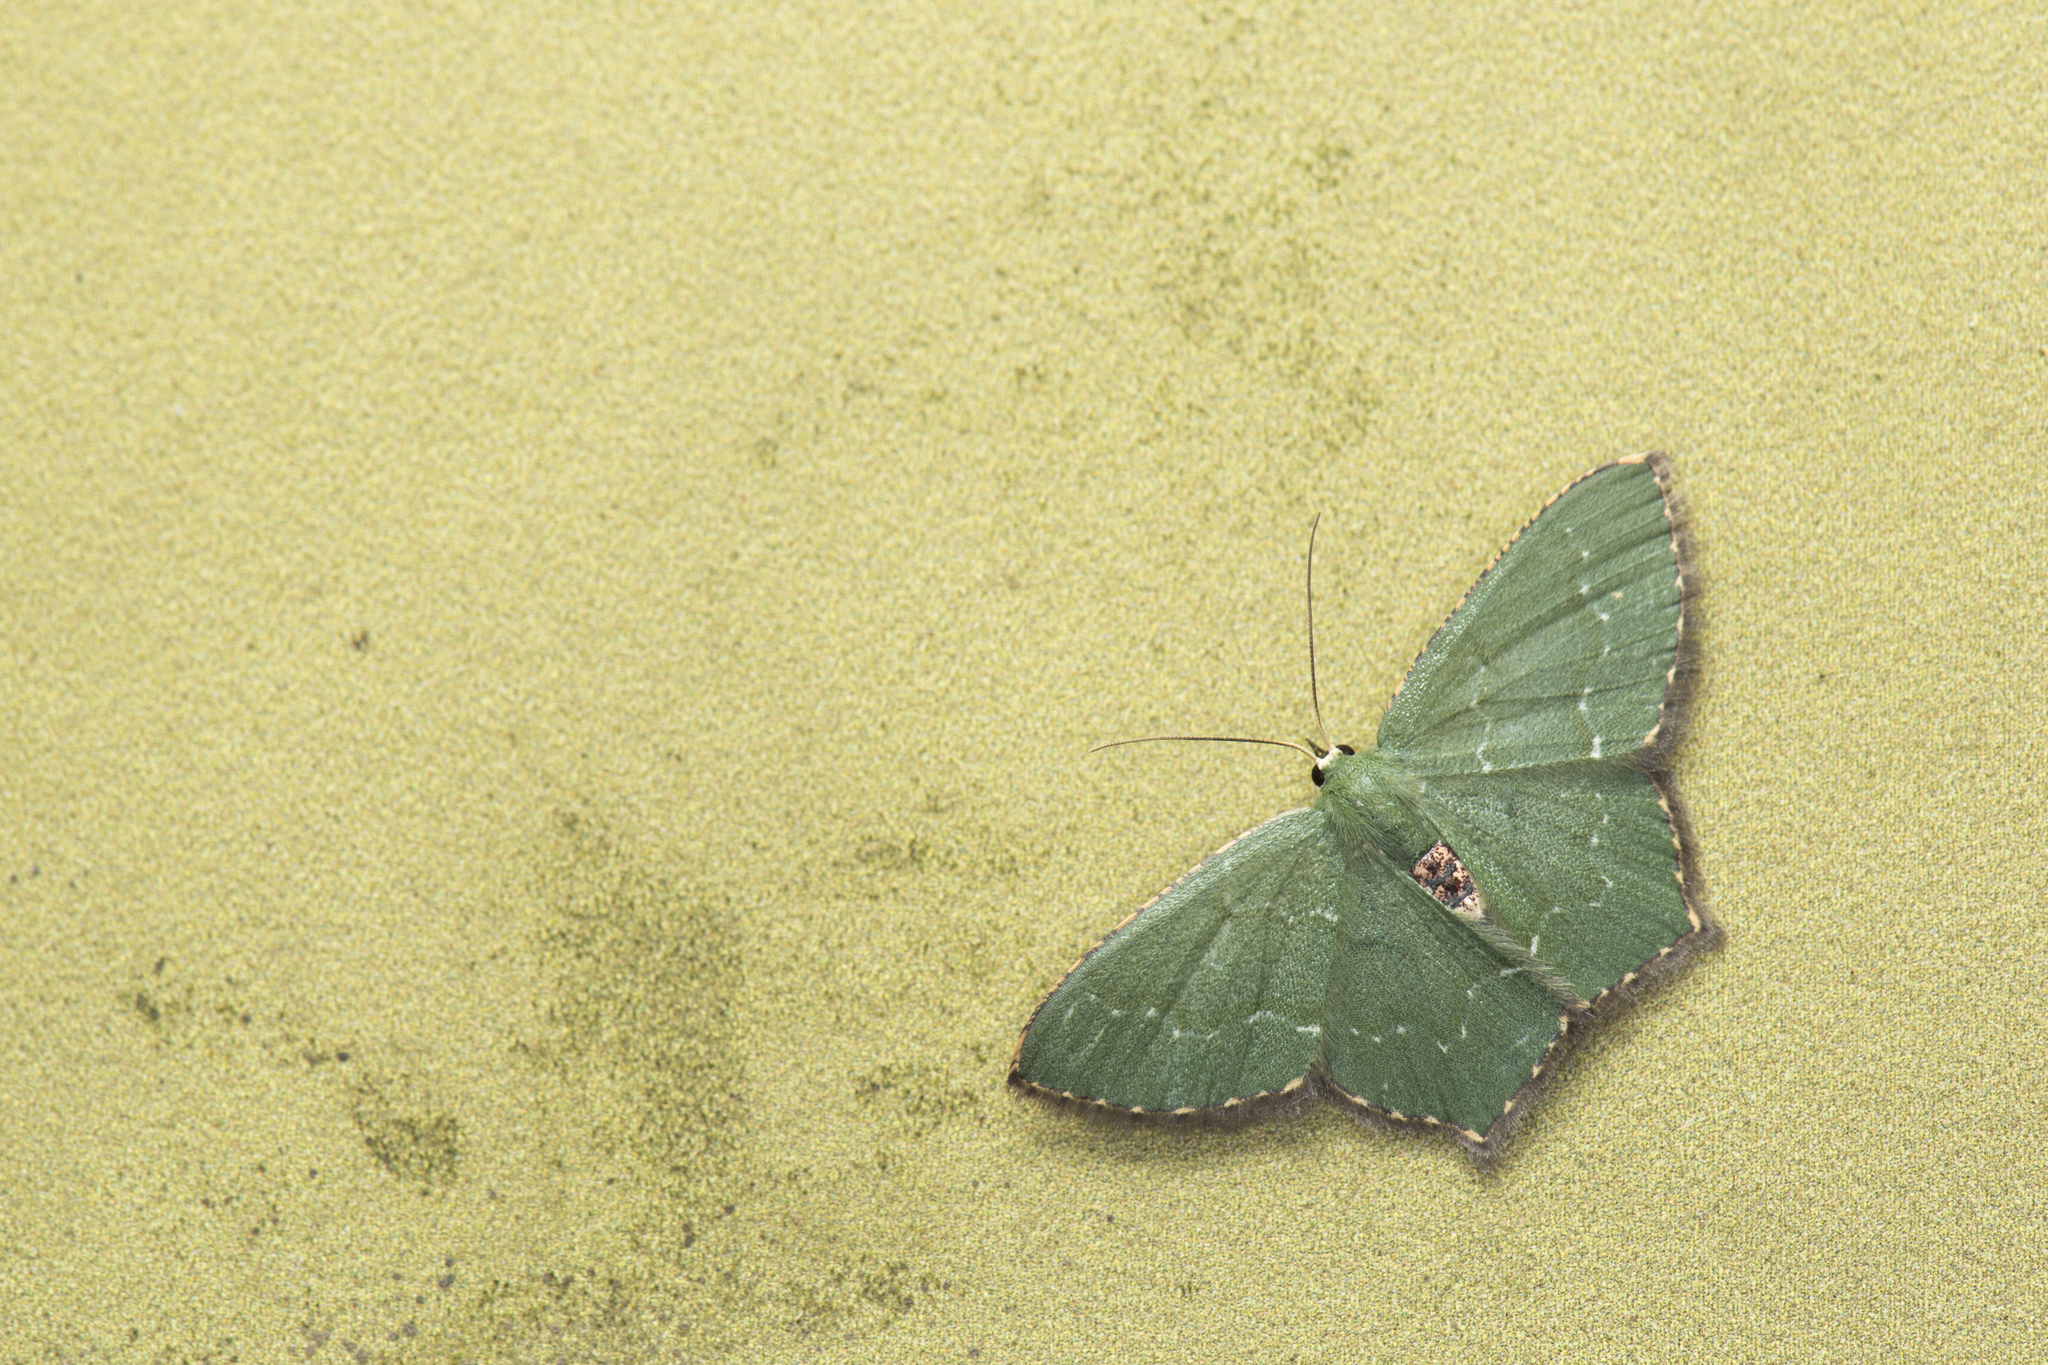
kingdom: Animalia
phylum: Arthropoda
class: Insecta
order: Lepidoptera
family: Geometridae
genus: Hemithea
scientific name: Hemithea tritonaria
